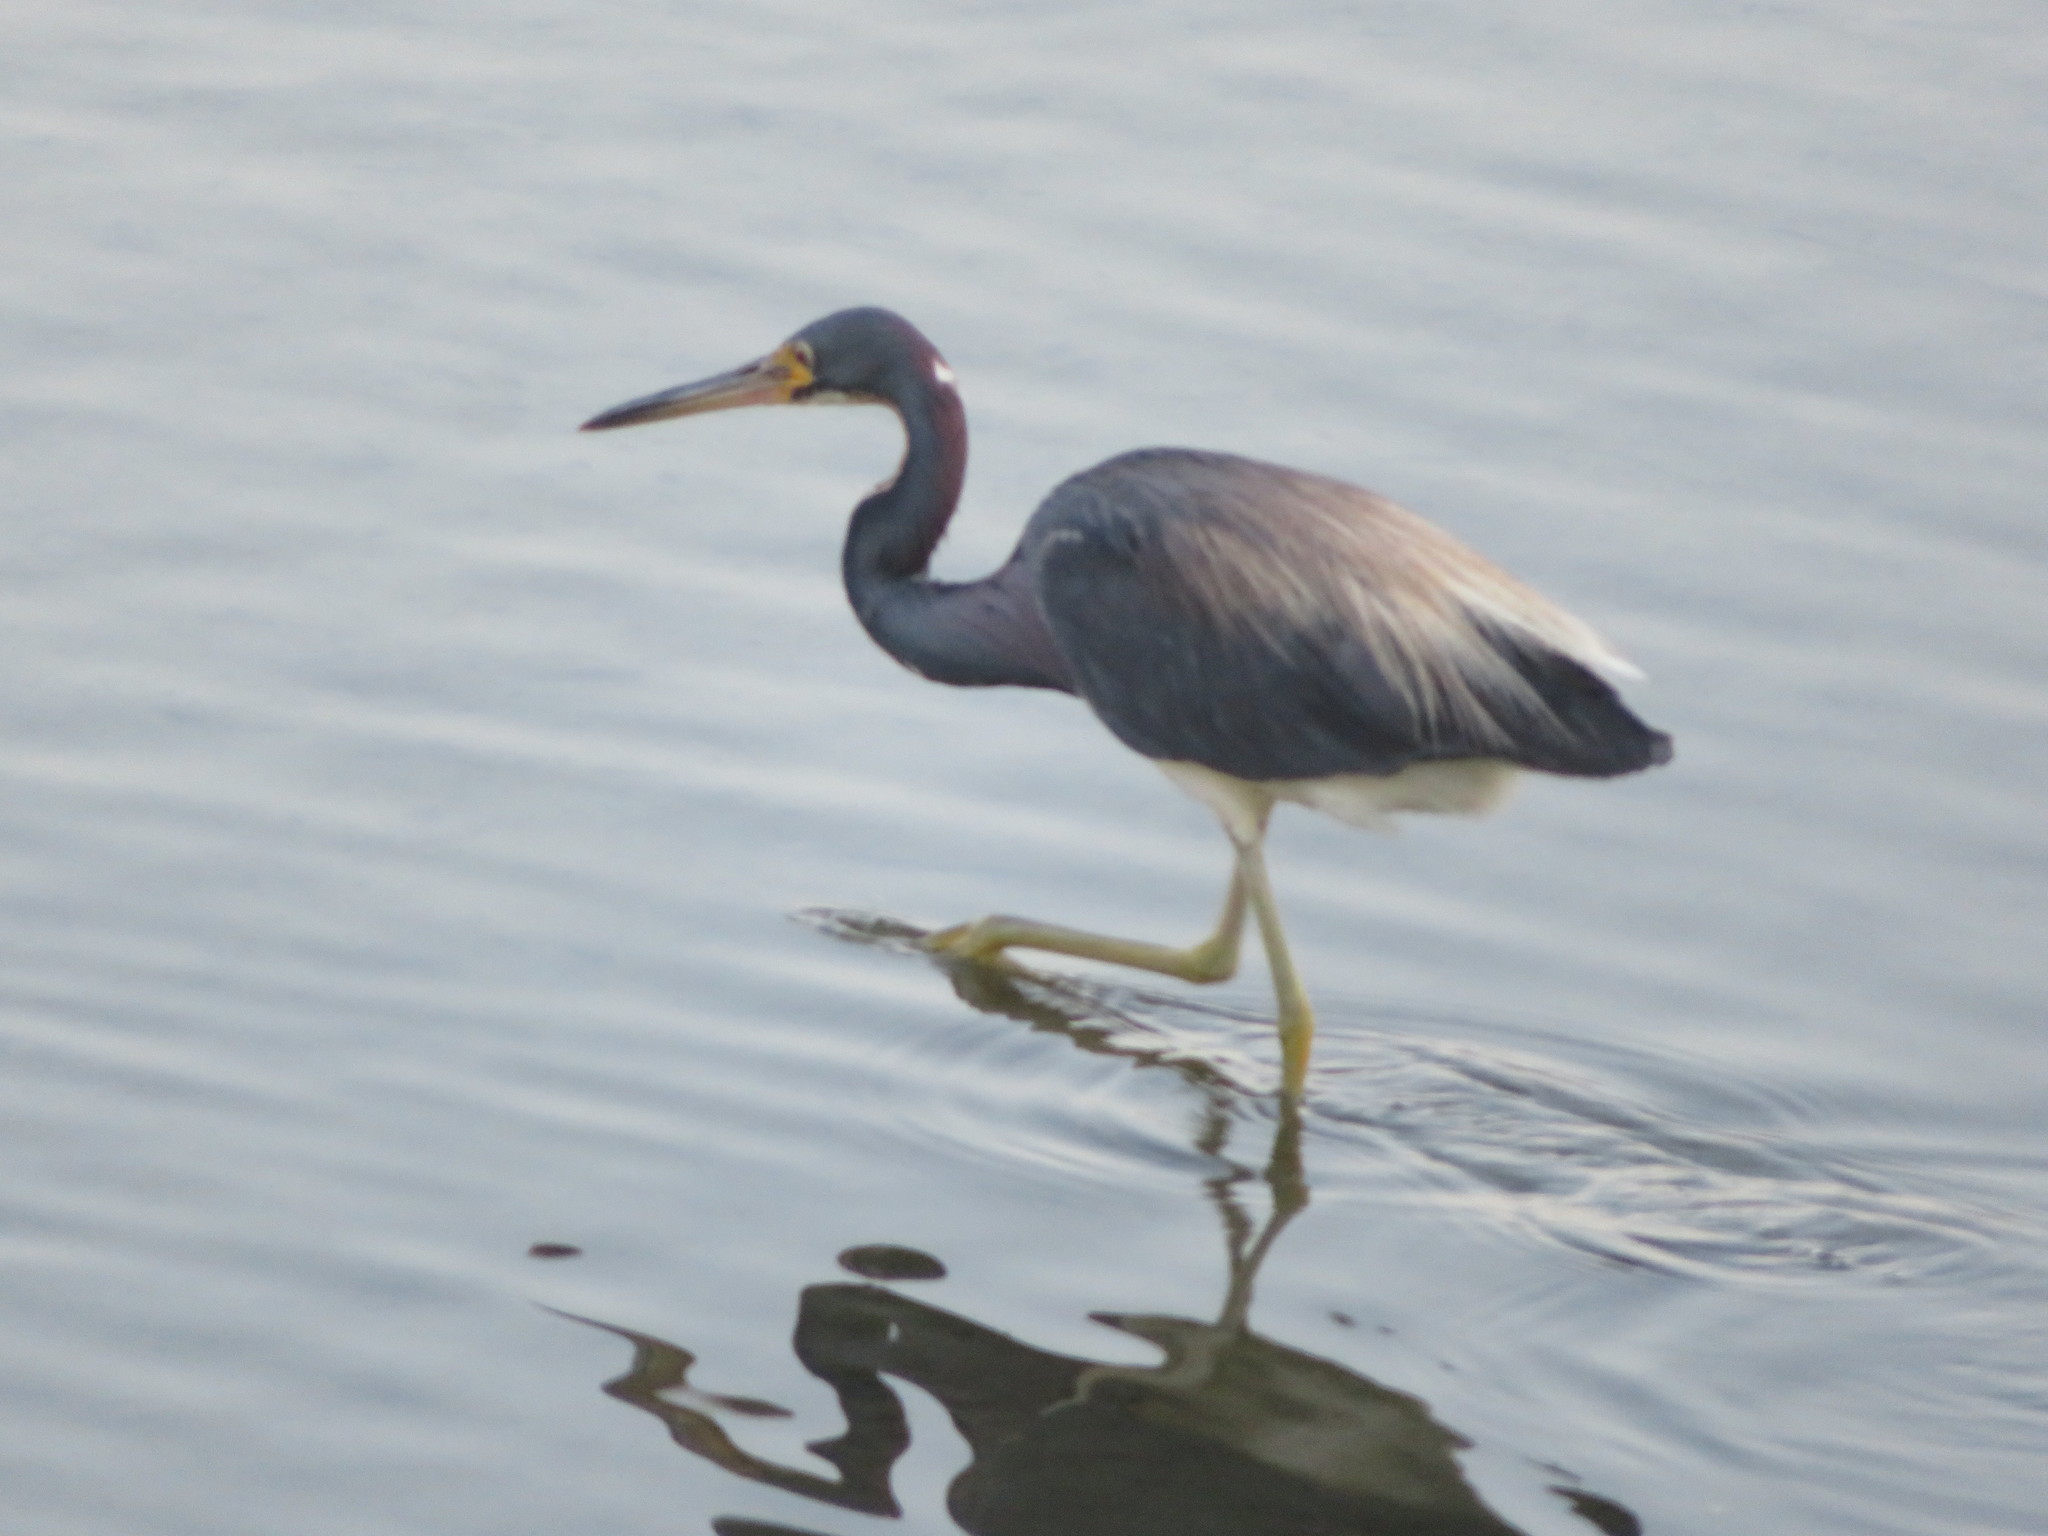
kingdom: Animalia
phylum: Chordata
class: Aves
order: Pelecaniformes
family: Ardeidae
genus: Egretta
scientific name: Egretta tricolor
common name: Tricolored heron
